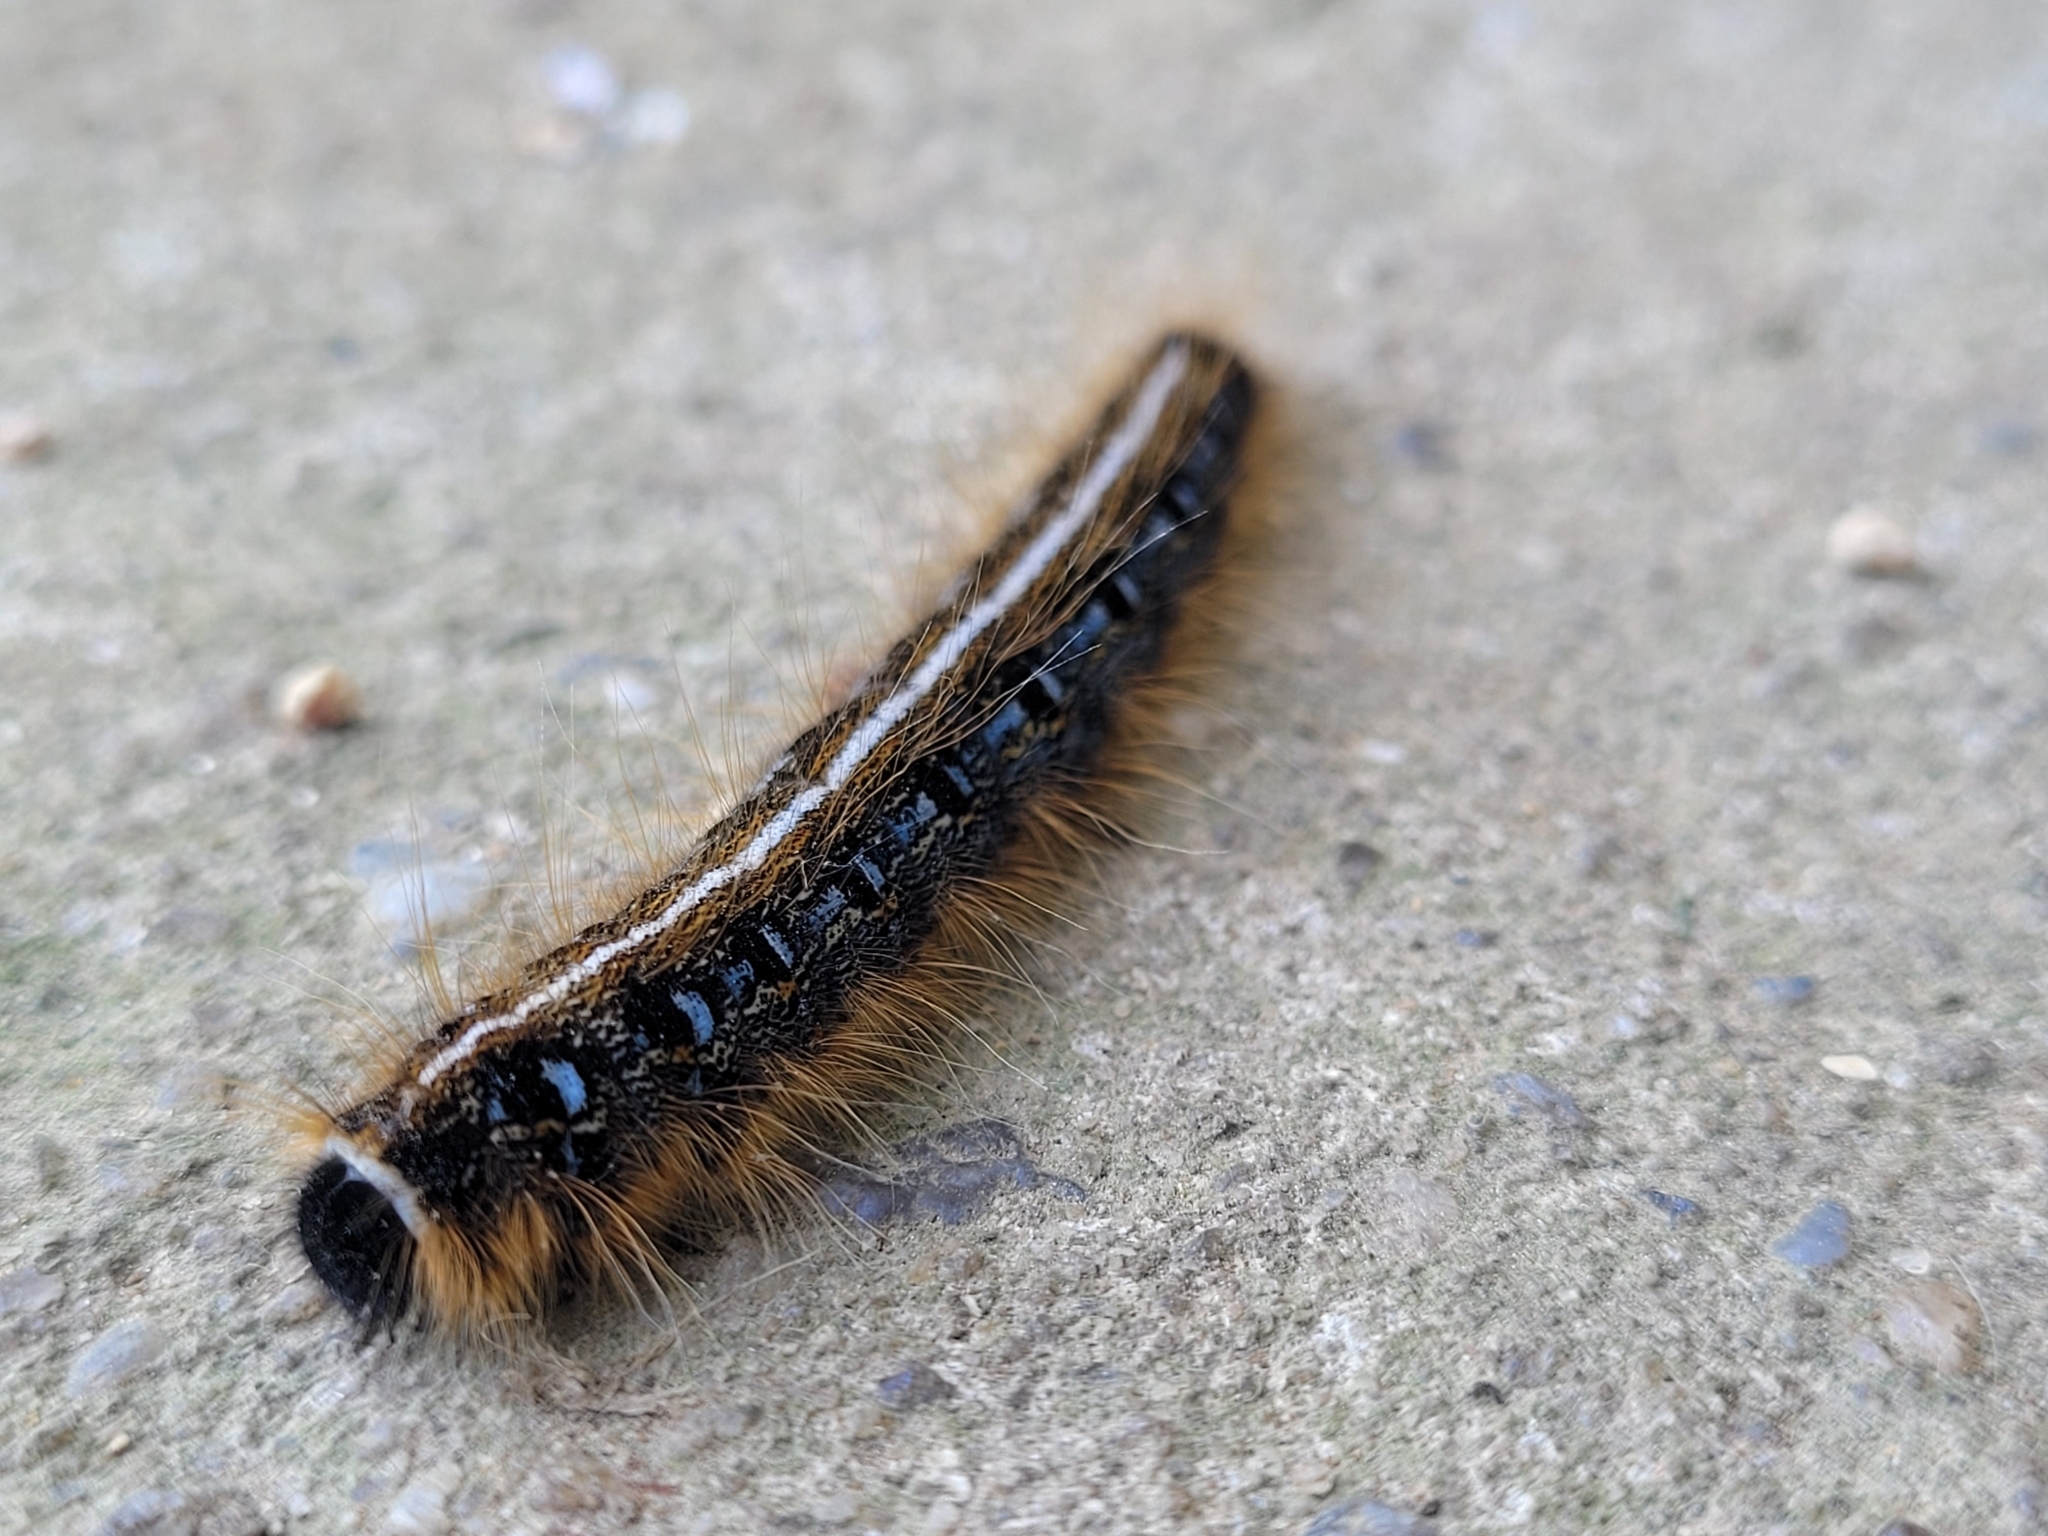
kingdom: Animalia
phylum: Arthropoda
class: Insecta
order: Lepidoptera
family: Lasiocampidae
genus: Malacosoma
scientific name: Malacosoma americana
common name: Eastern tent caterpillar moth
